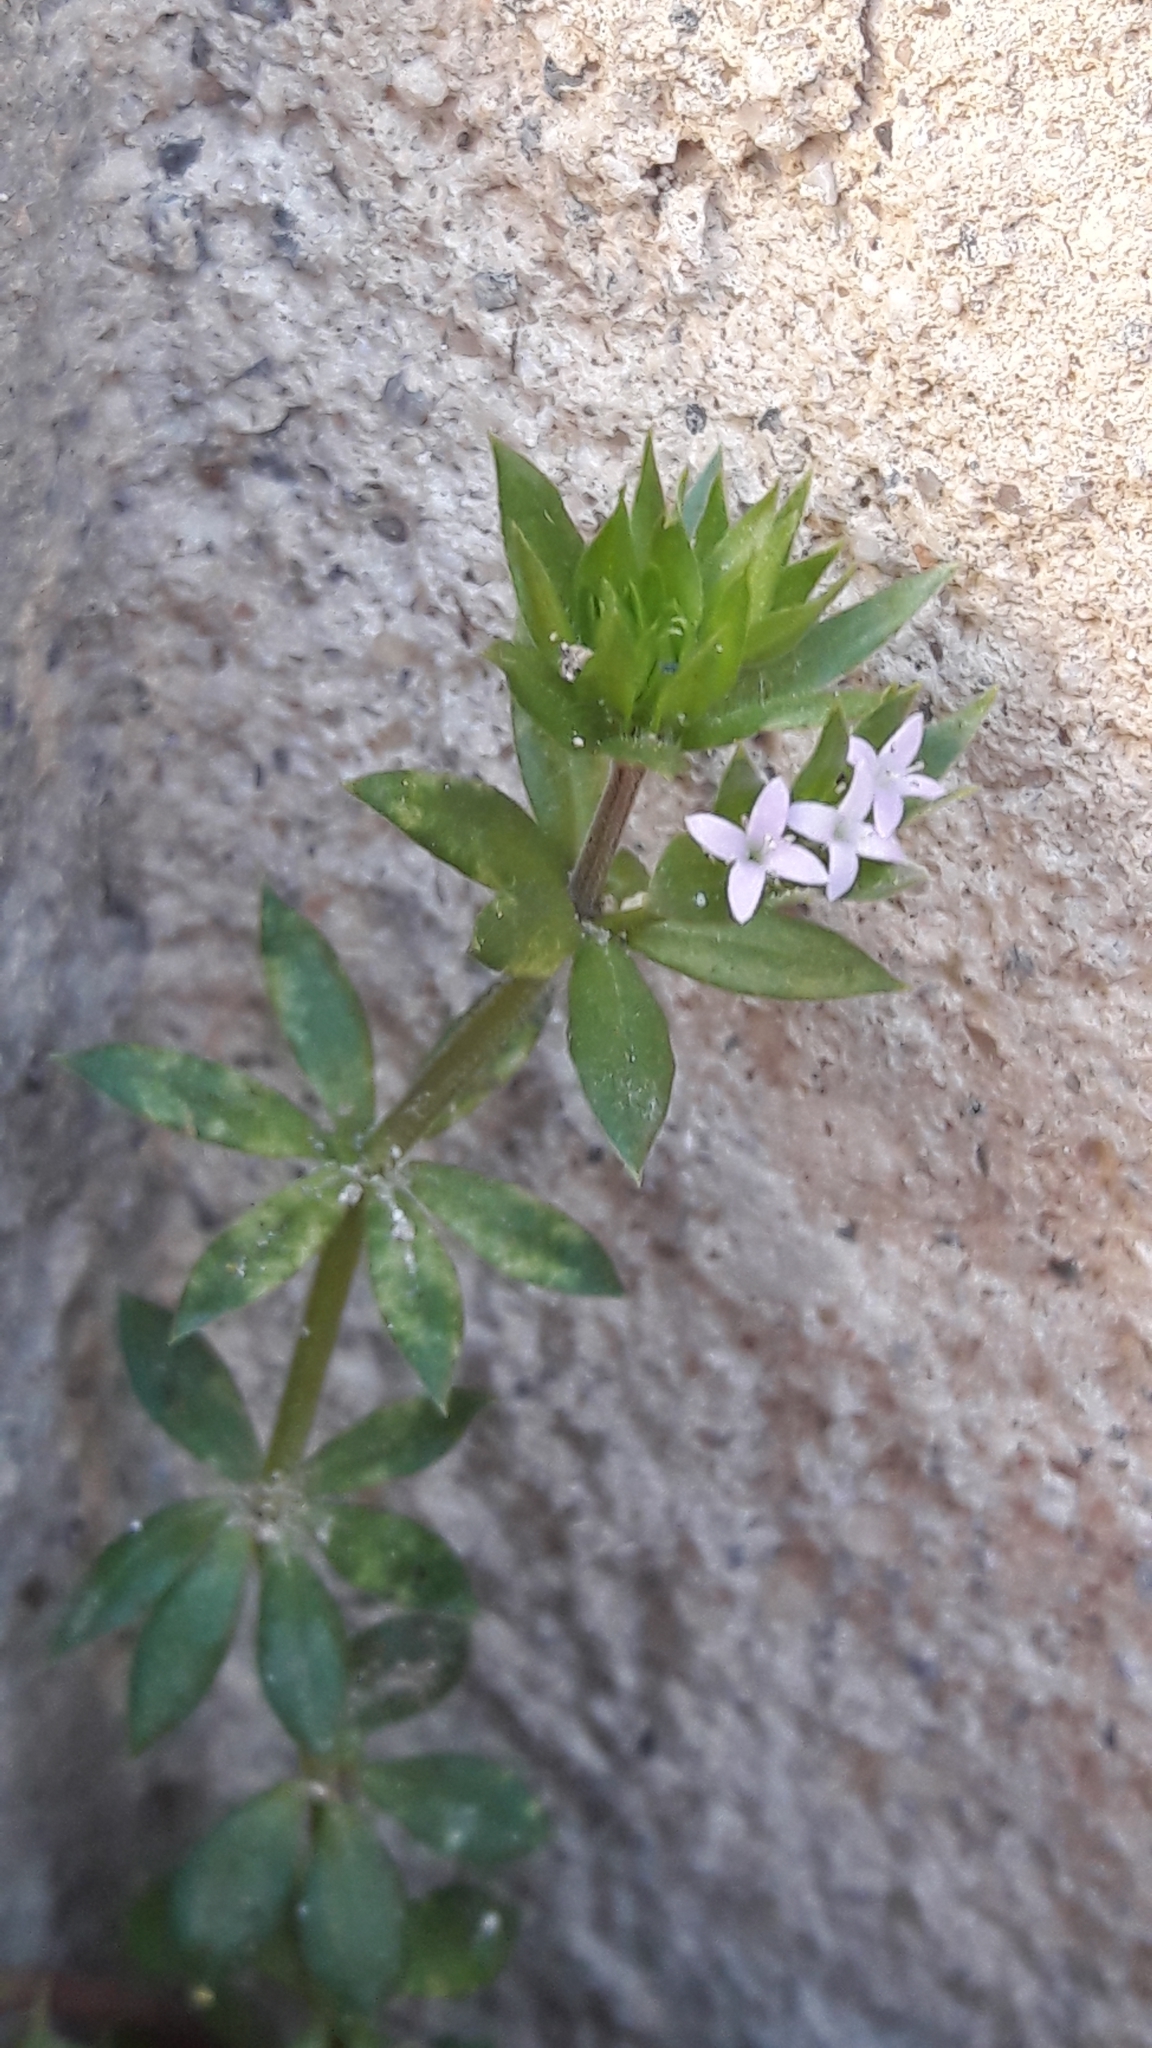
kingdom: Plantae
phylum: Tracheophyta
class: Magnoliopsida
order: Gentianales
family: Rubiaceae
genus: Sherardia
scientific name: Sherardia arvensis
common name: Field madder
